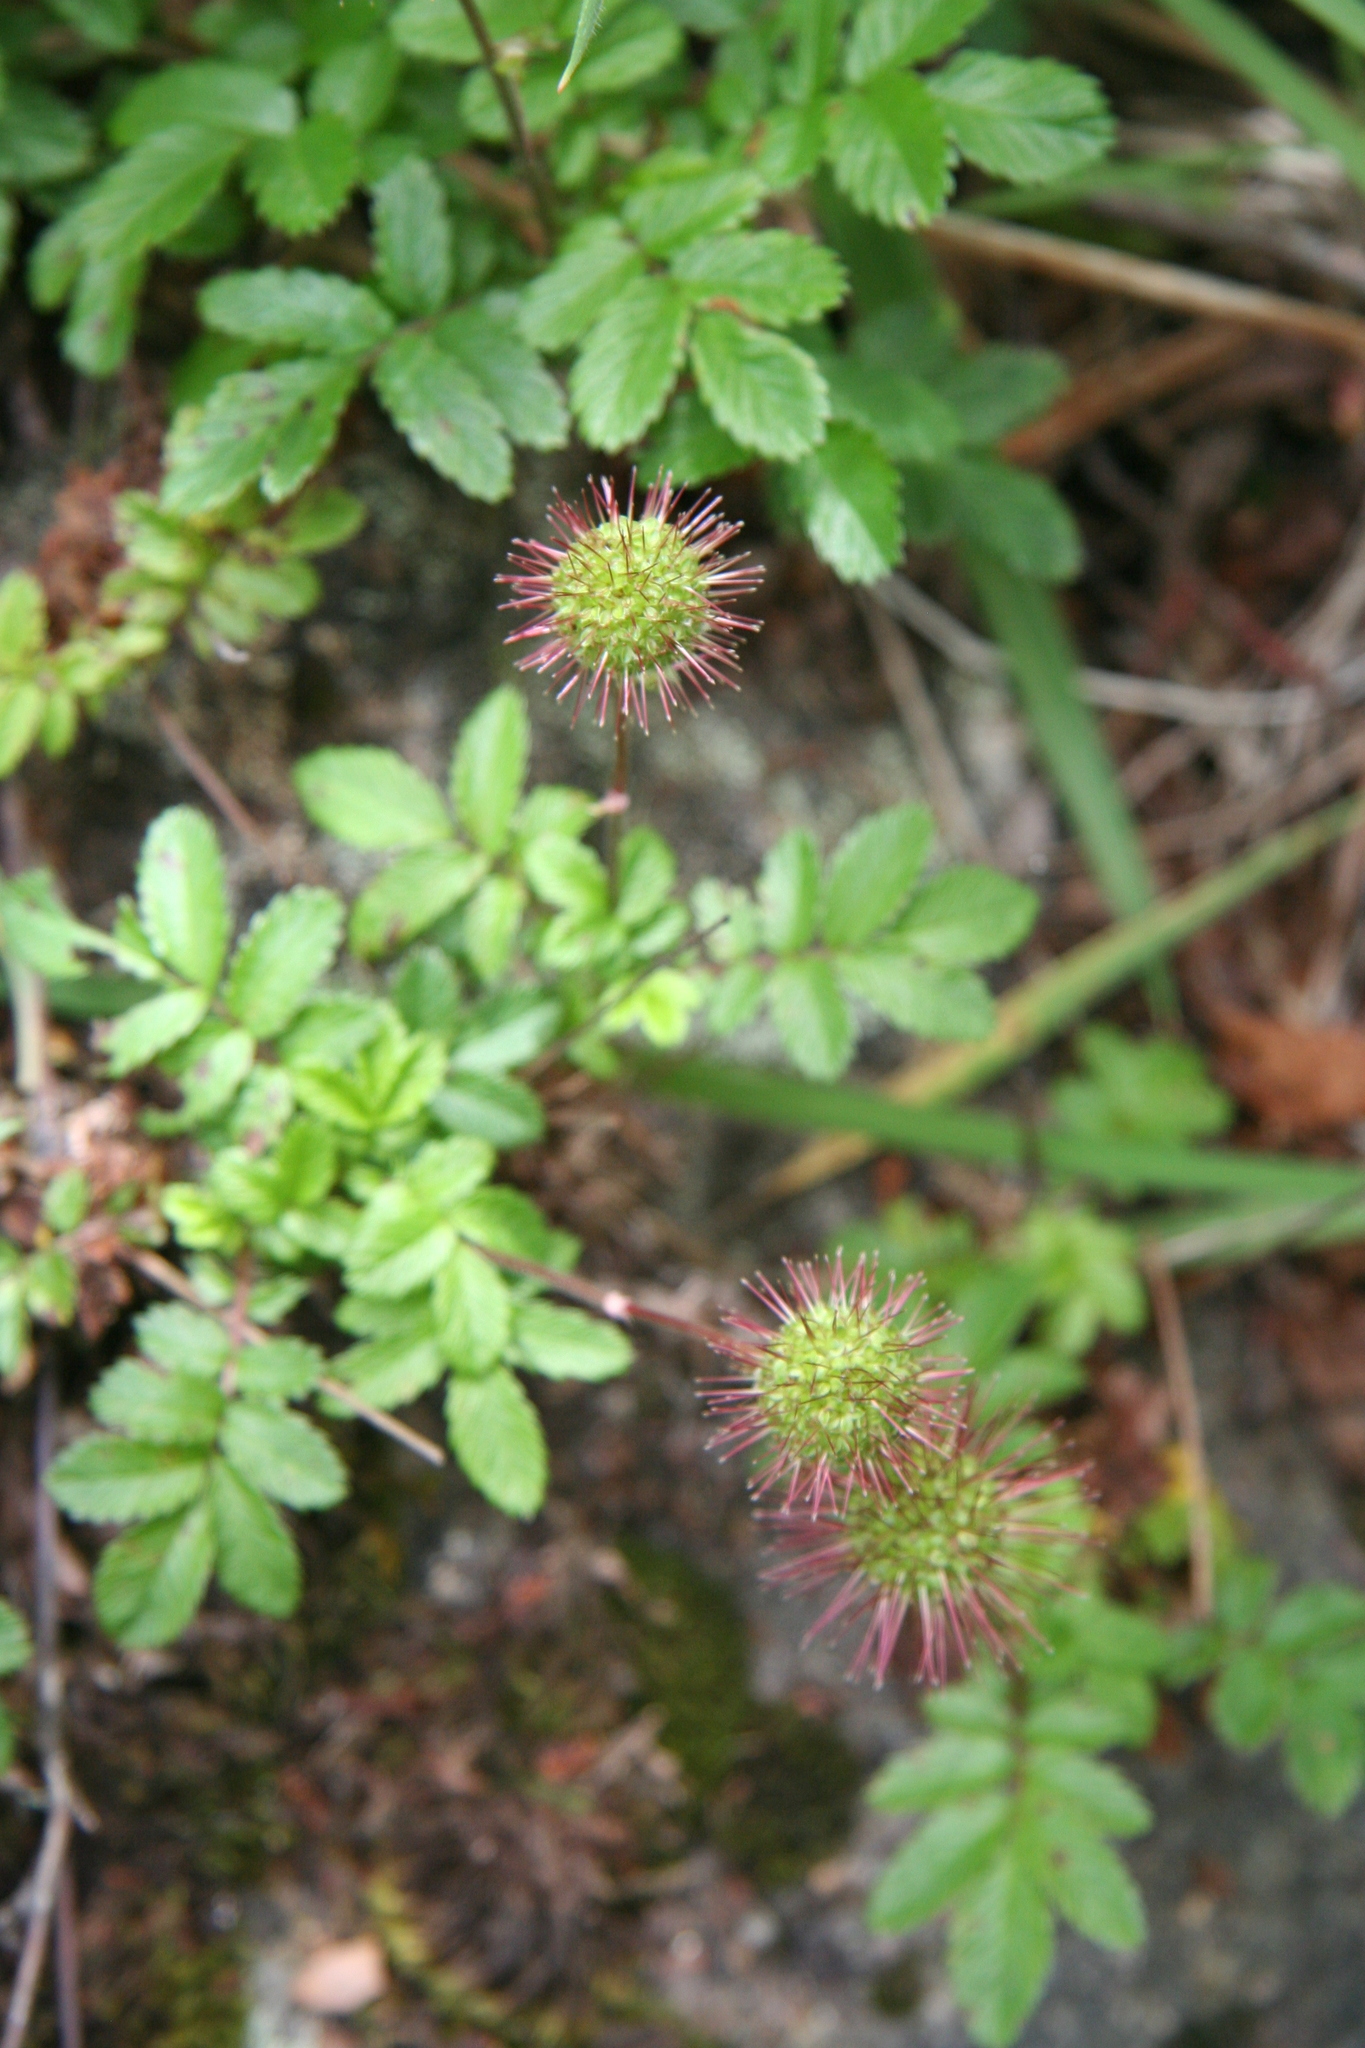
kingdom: Plantae
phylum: Tracheophyta
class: Magnoliopsida
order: Rosales
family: Rosaceae
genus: Acaena
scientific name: Acaena ovalifolia
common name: Two-spined acaena
